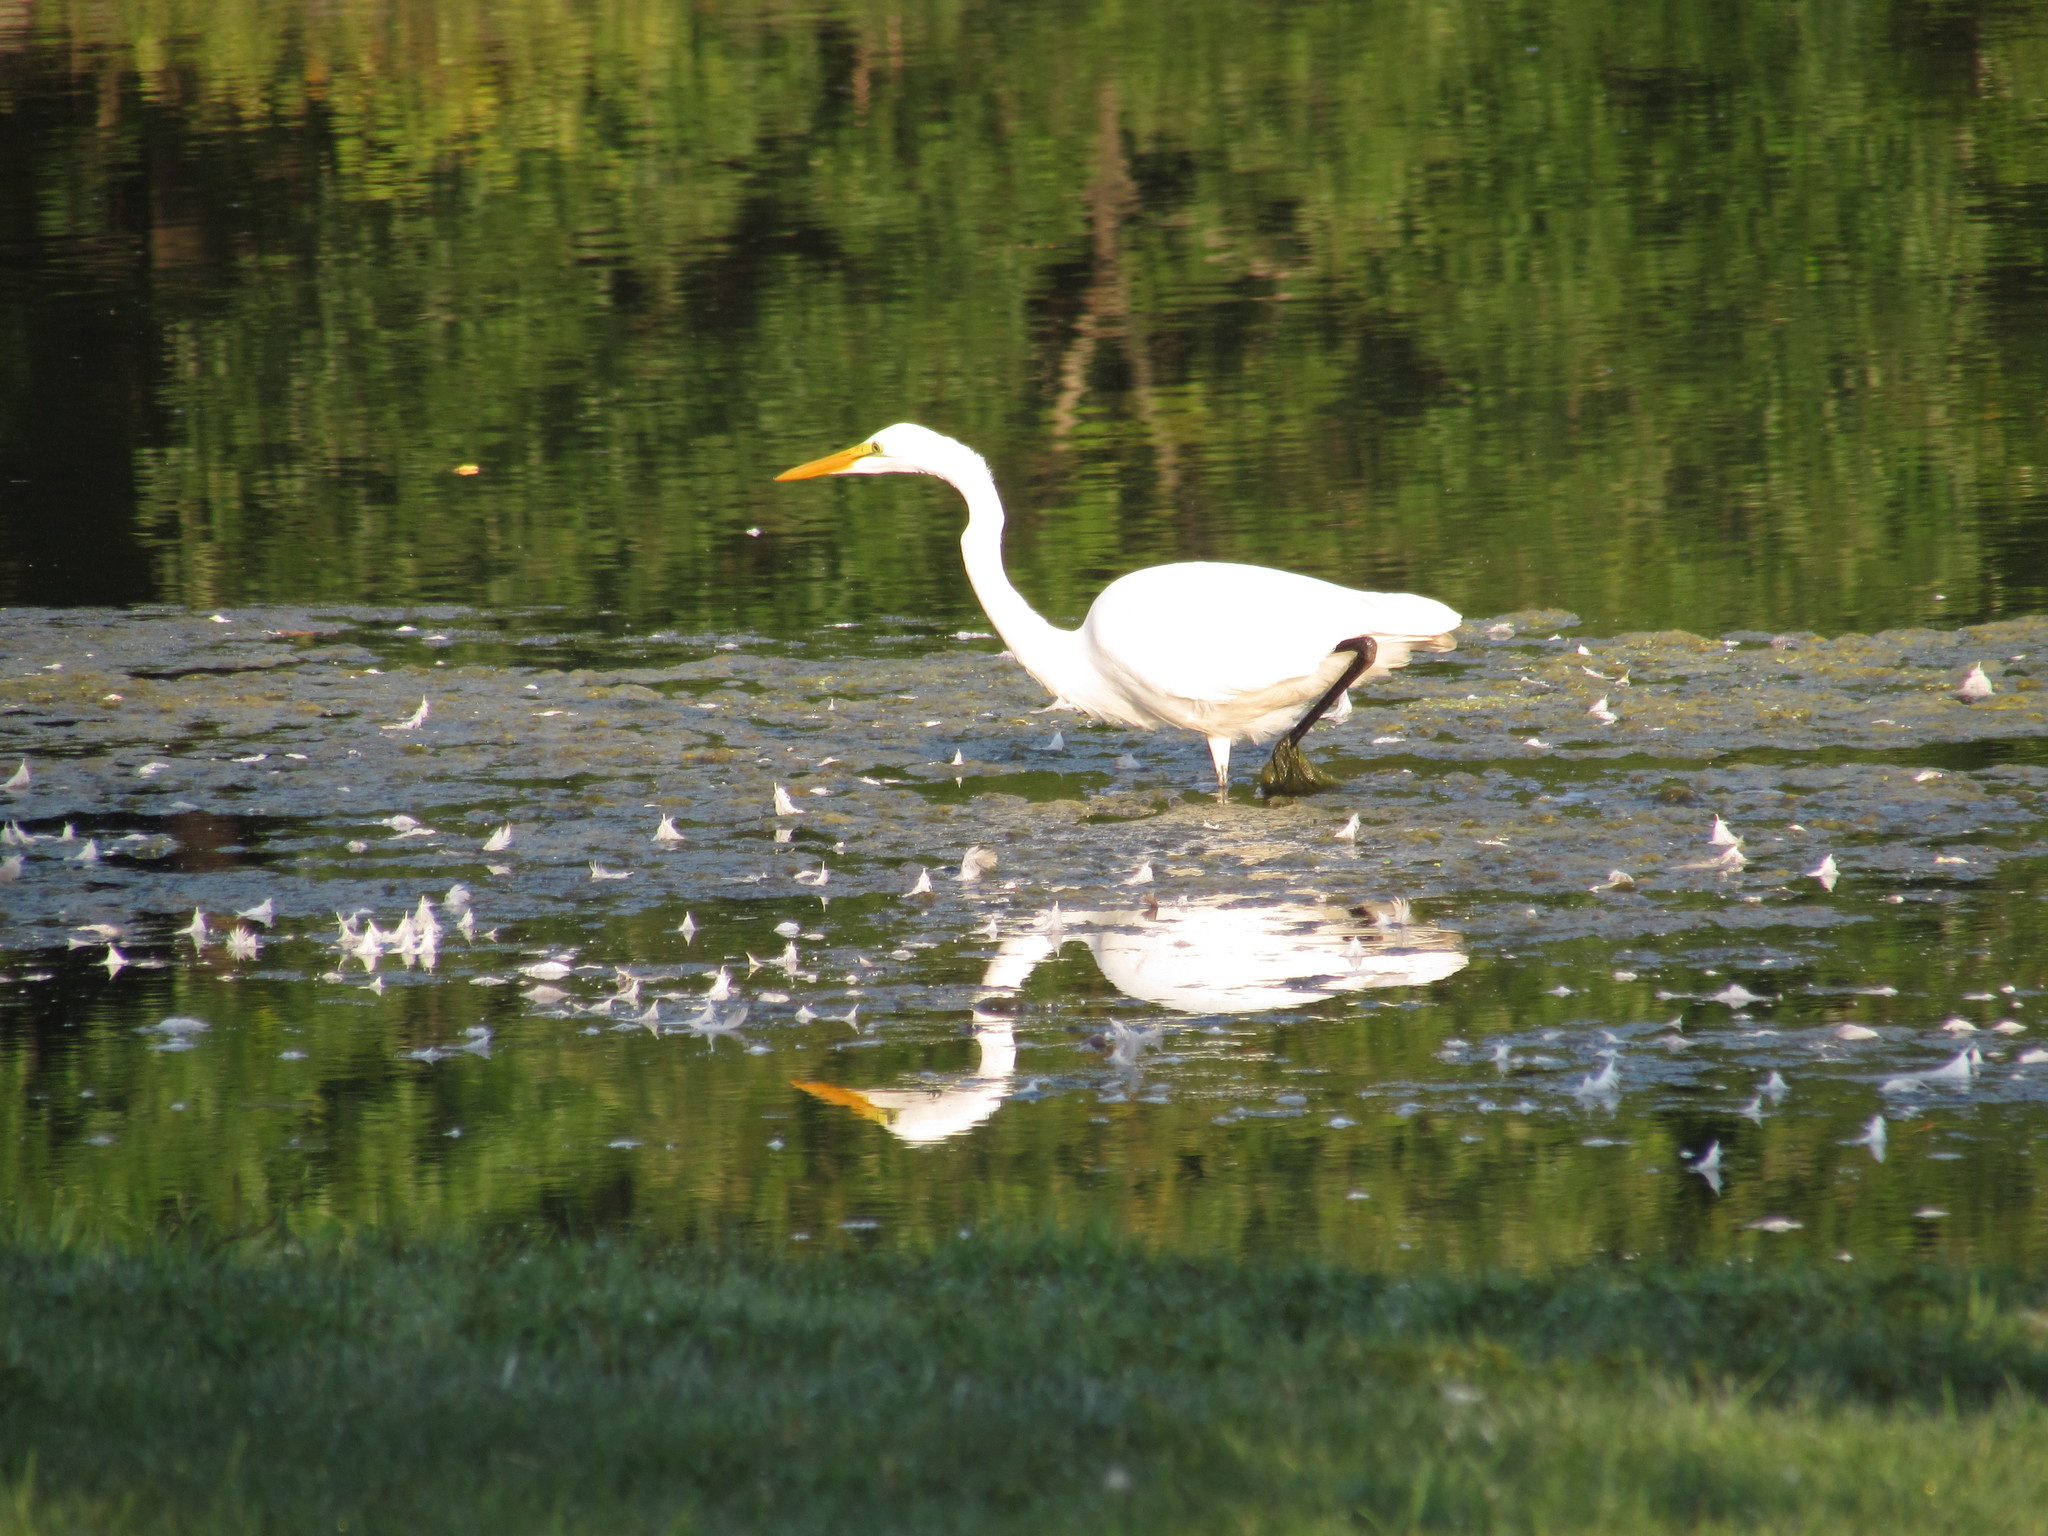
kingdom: Animalia
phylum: Chordata
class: Aves
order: Pelecaniformes
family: Ardeidae
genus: Ardea
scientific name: Ardea alba
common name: Great egret
